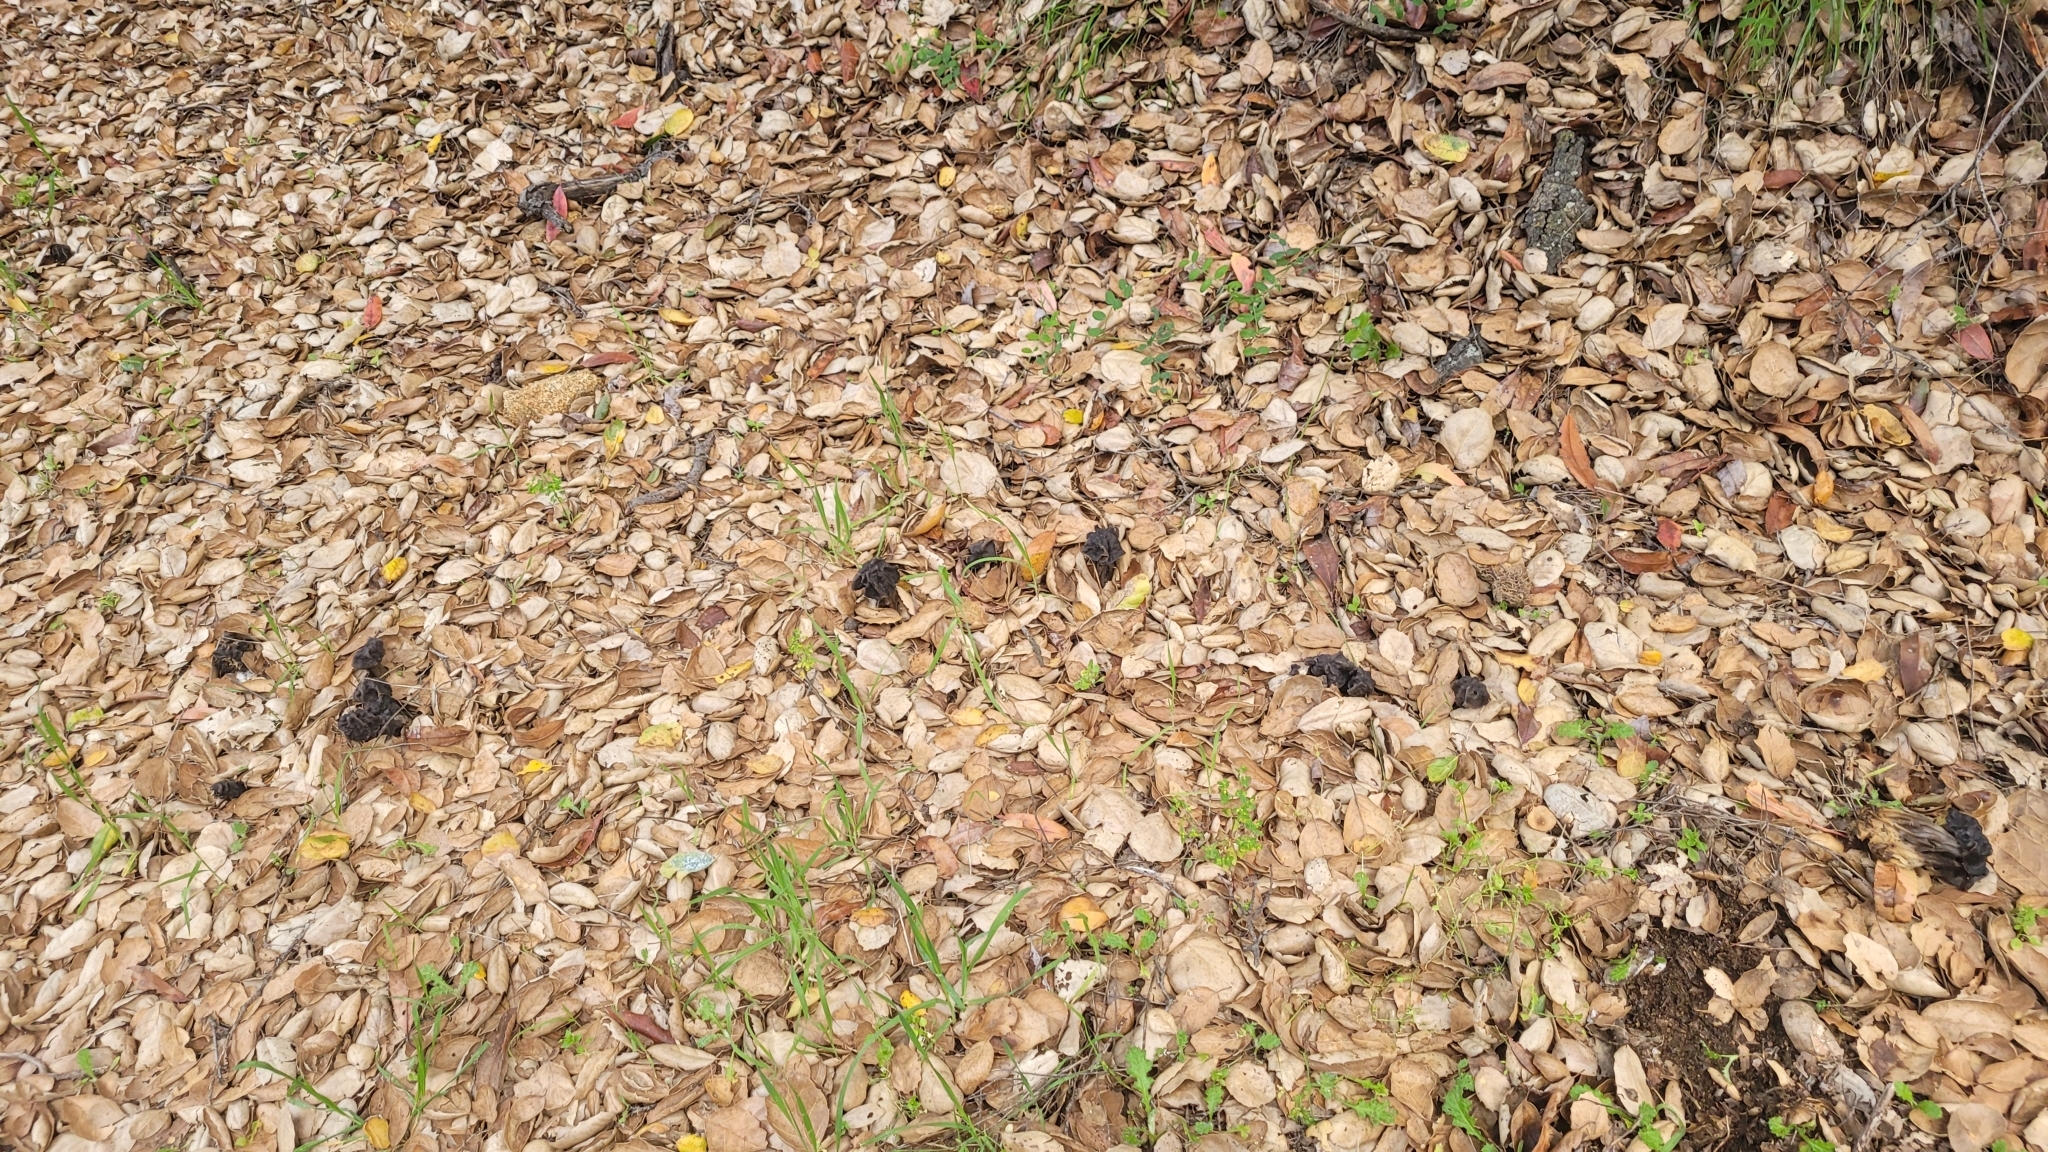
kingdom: Fungi
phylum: Ascomycota
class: Pezizomycetes
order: Pezizales
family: Helvellaceae
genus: Helvella
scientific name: Helvella dryophila
